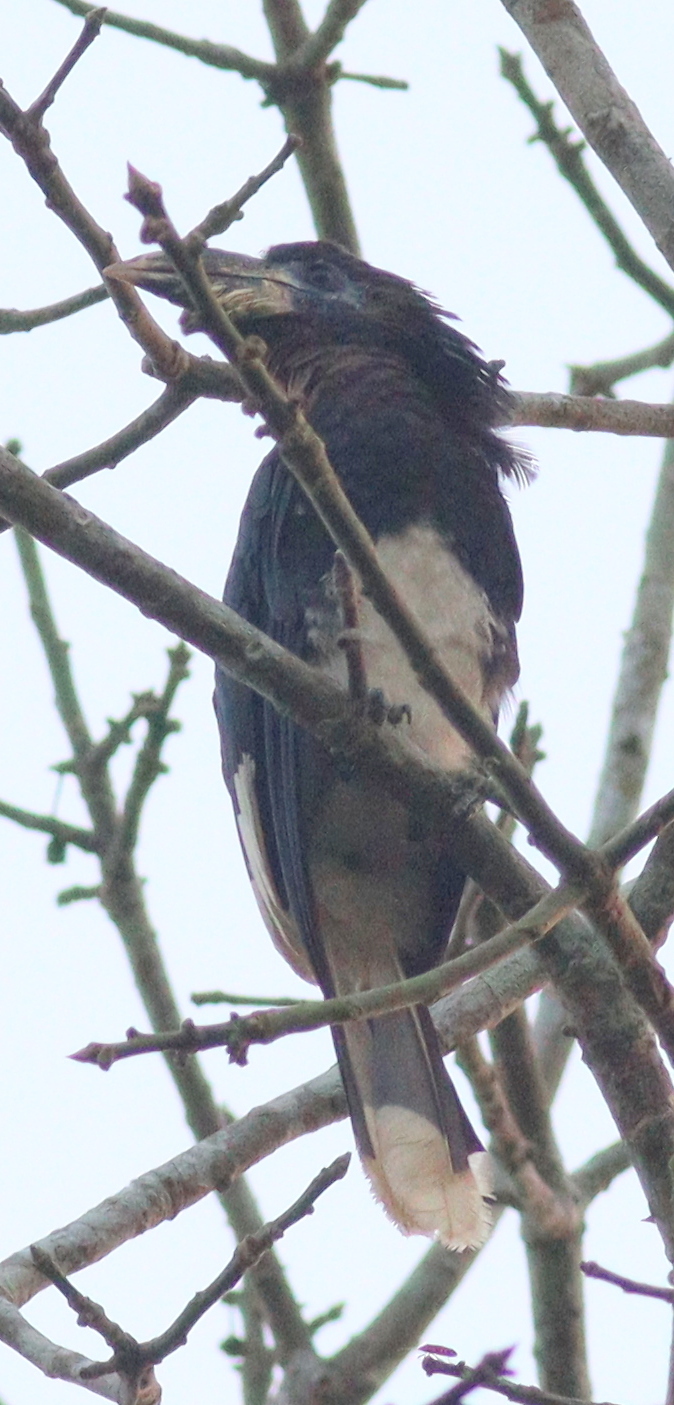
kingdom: Animalia
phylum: Chordata
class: Aves
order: Bucerotiformes
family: Bucerotidae
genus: Bycanistes
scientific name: Bycanistes fistulator
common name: Piping hornbill
